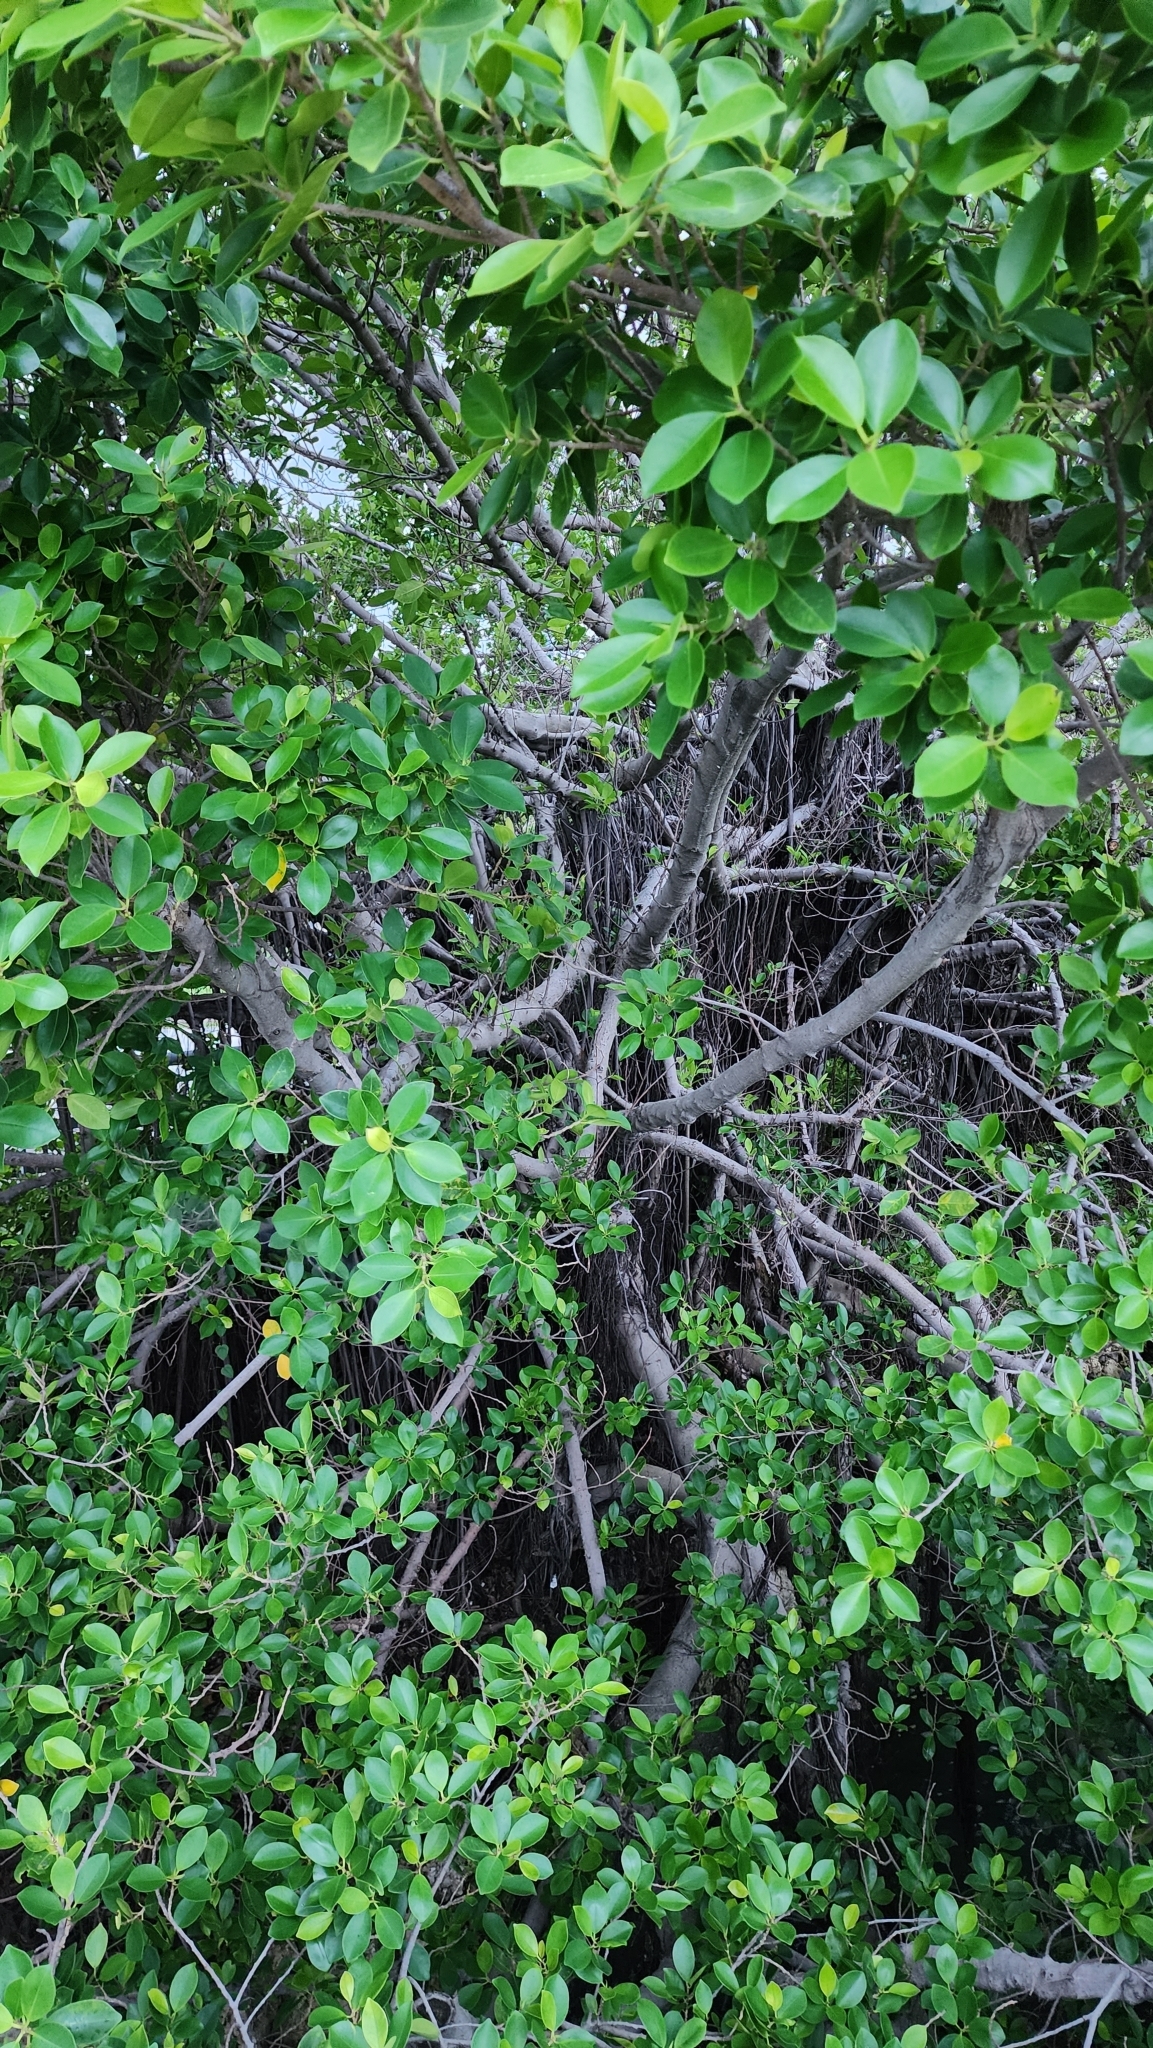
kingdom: Plantae
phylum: Tracheophyta
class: Magnoliopsida
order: Rosales
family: Moraceae
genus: Ficus
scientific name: Ficus microcarpa
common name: Chinese banyan
